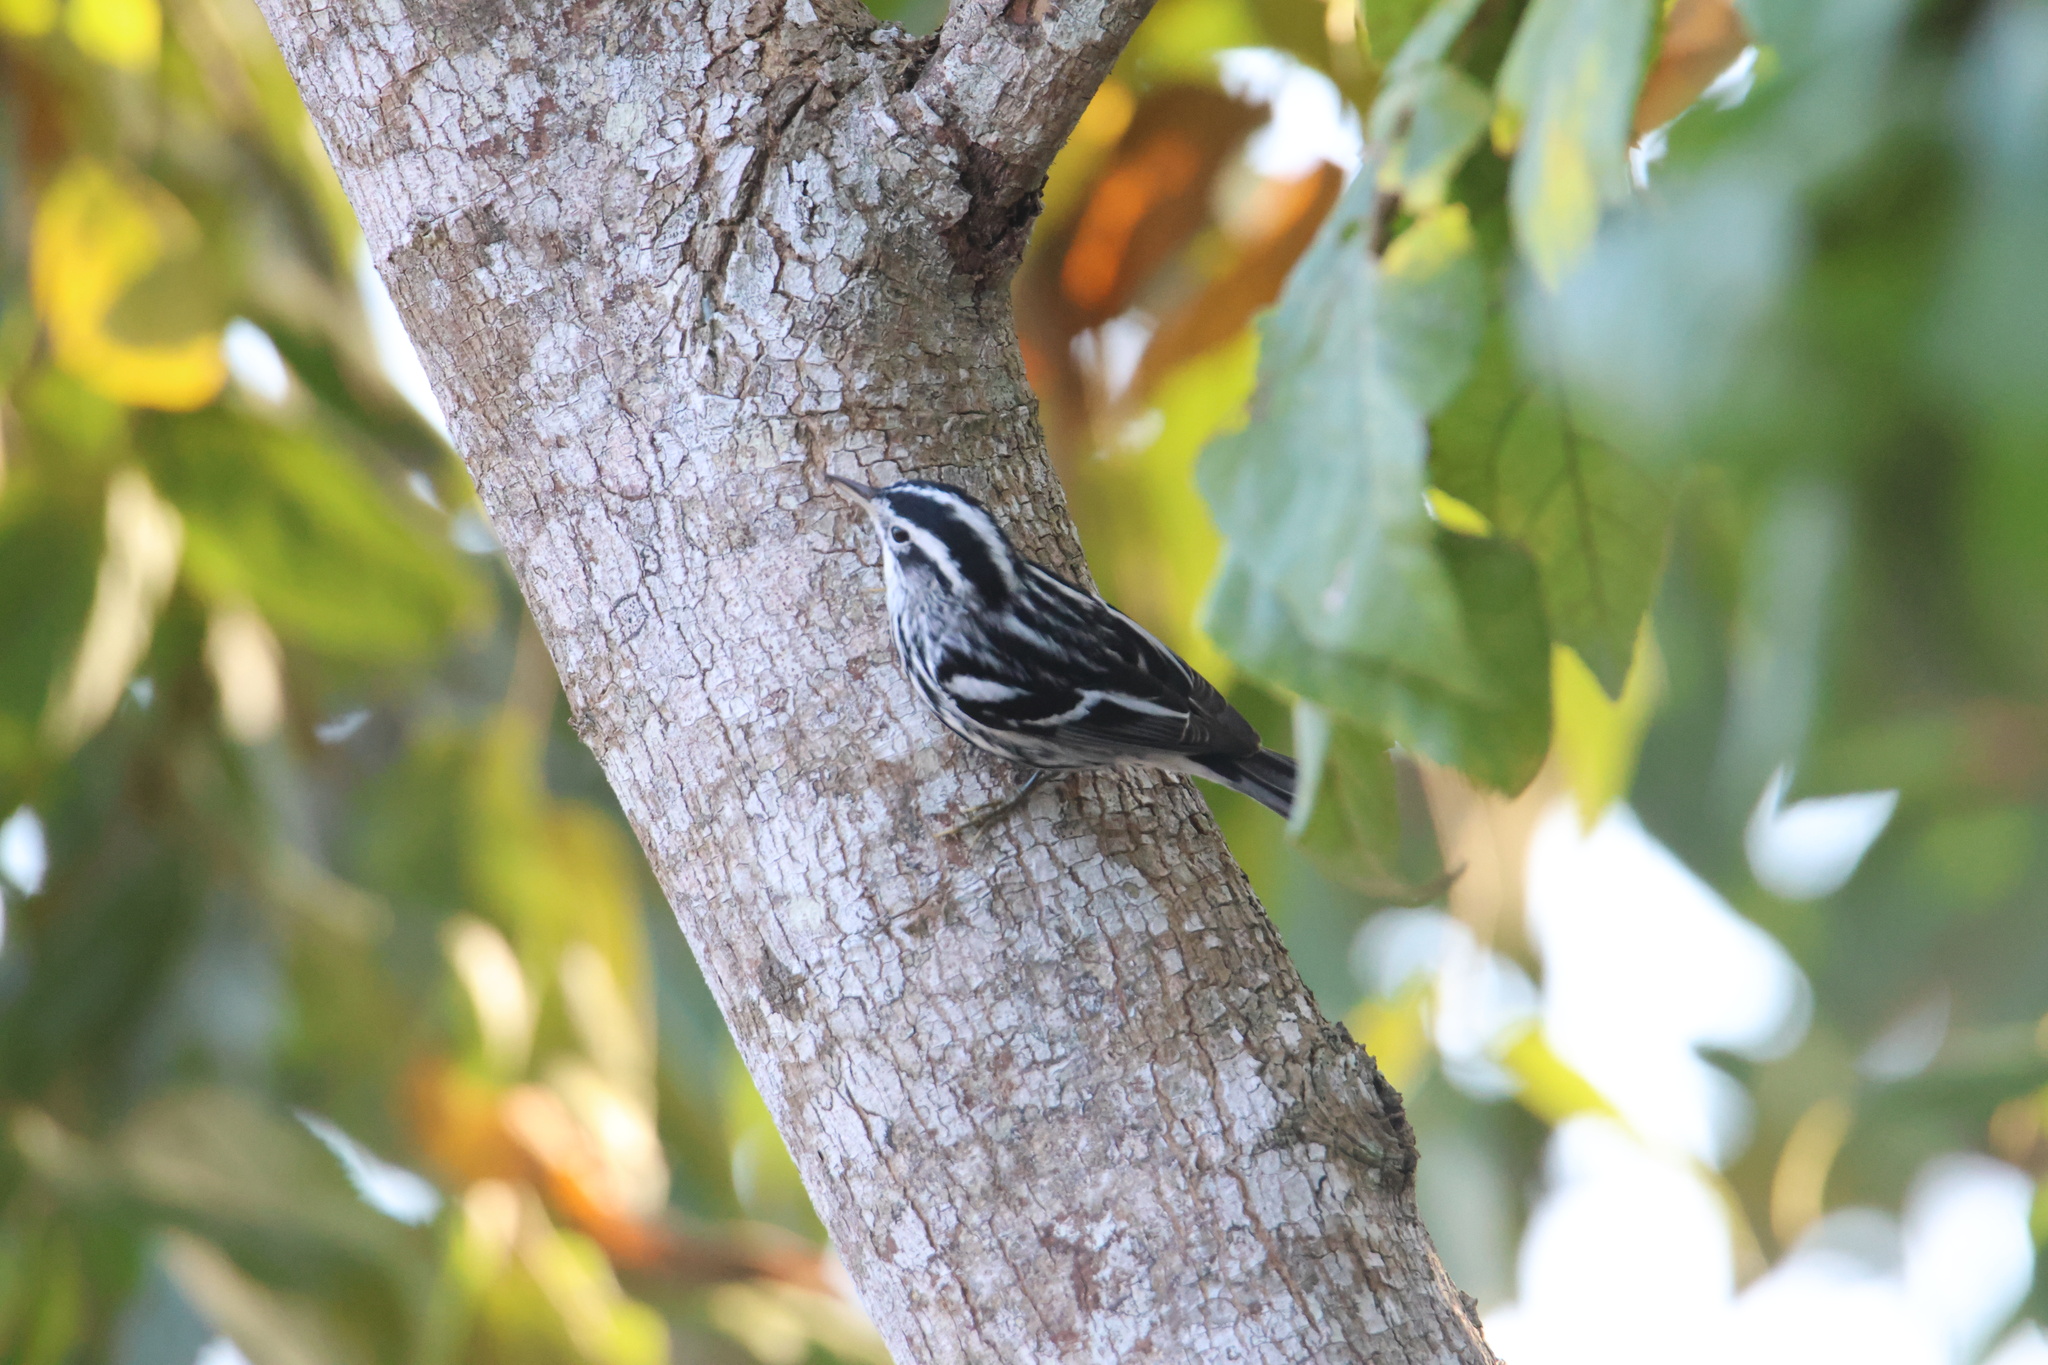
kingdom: Animalia
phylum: Chordata
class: Aves
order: Passeriformes
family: Parulidae
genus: Mniotilta
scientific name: Mniotilta varia
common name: Black-and-white warbler
